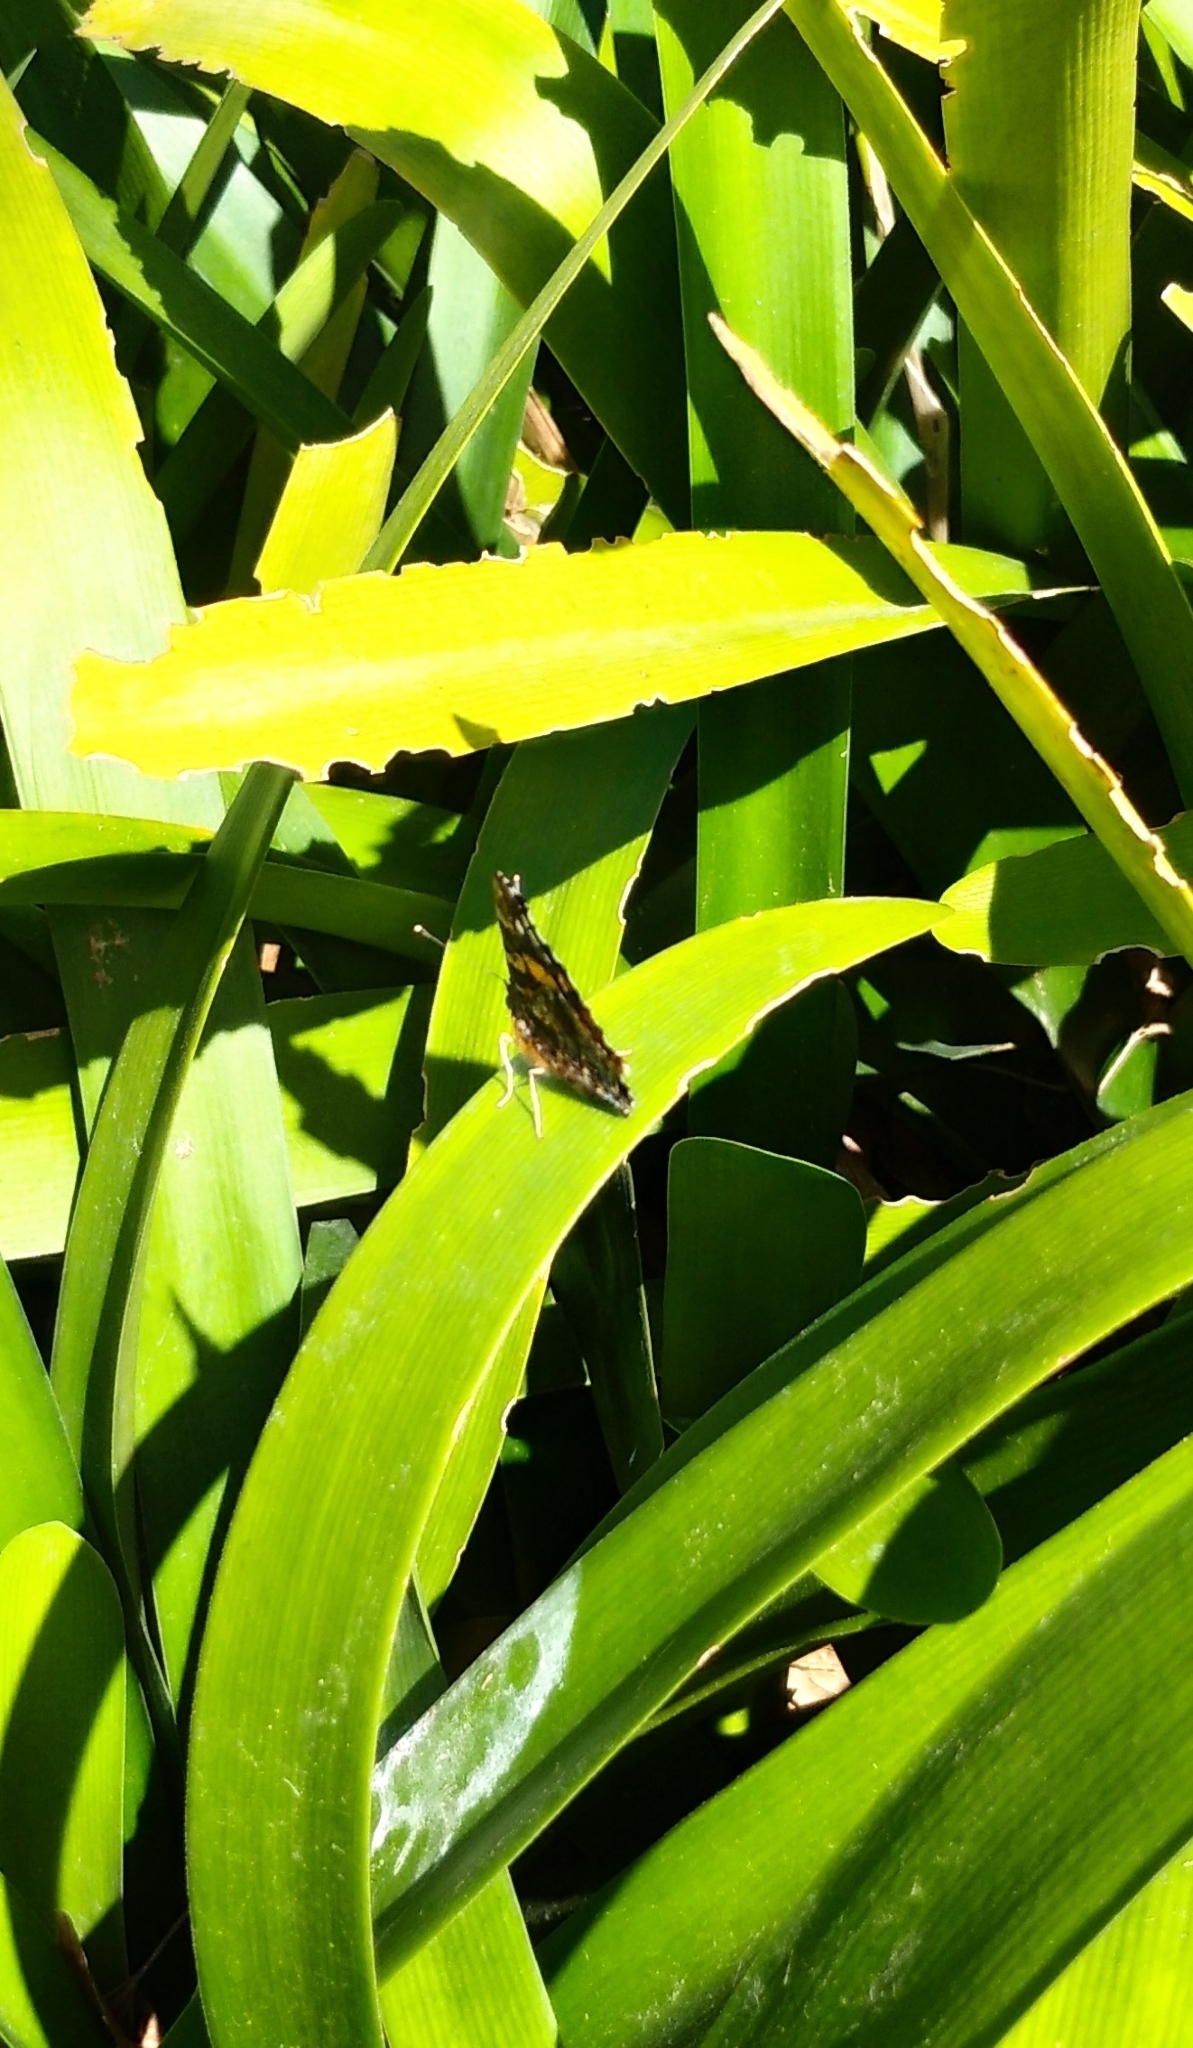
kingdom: Animalia
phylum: Arthropoda
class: Insecta
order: Lepidoptera
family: Nymphalidae
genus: Hypanartia
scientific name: Hypanartia bella
